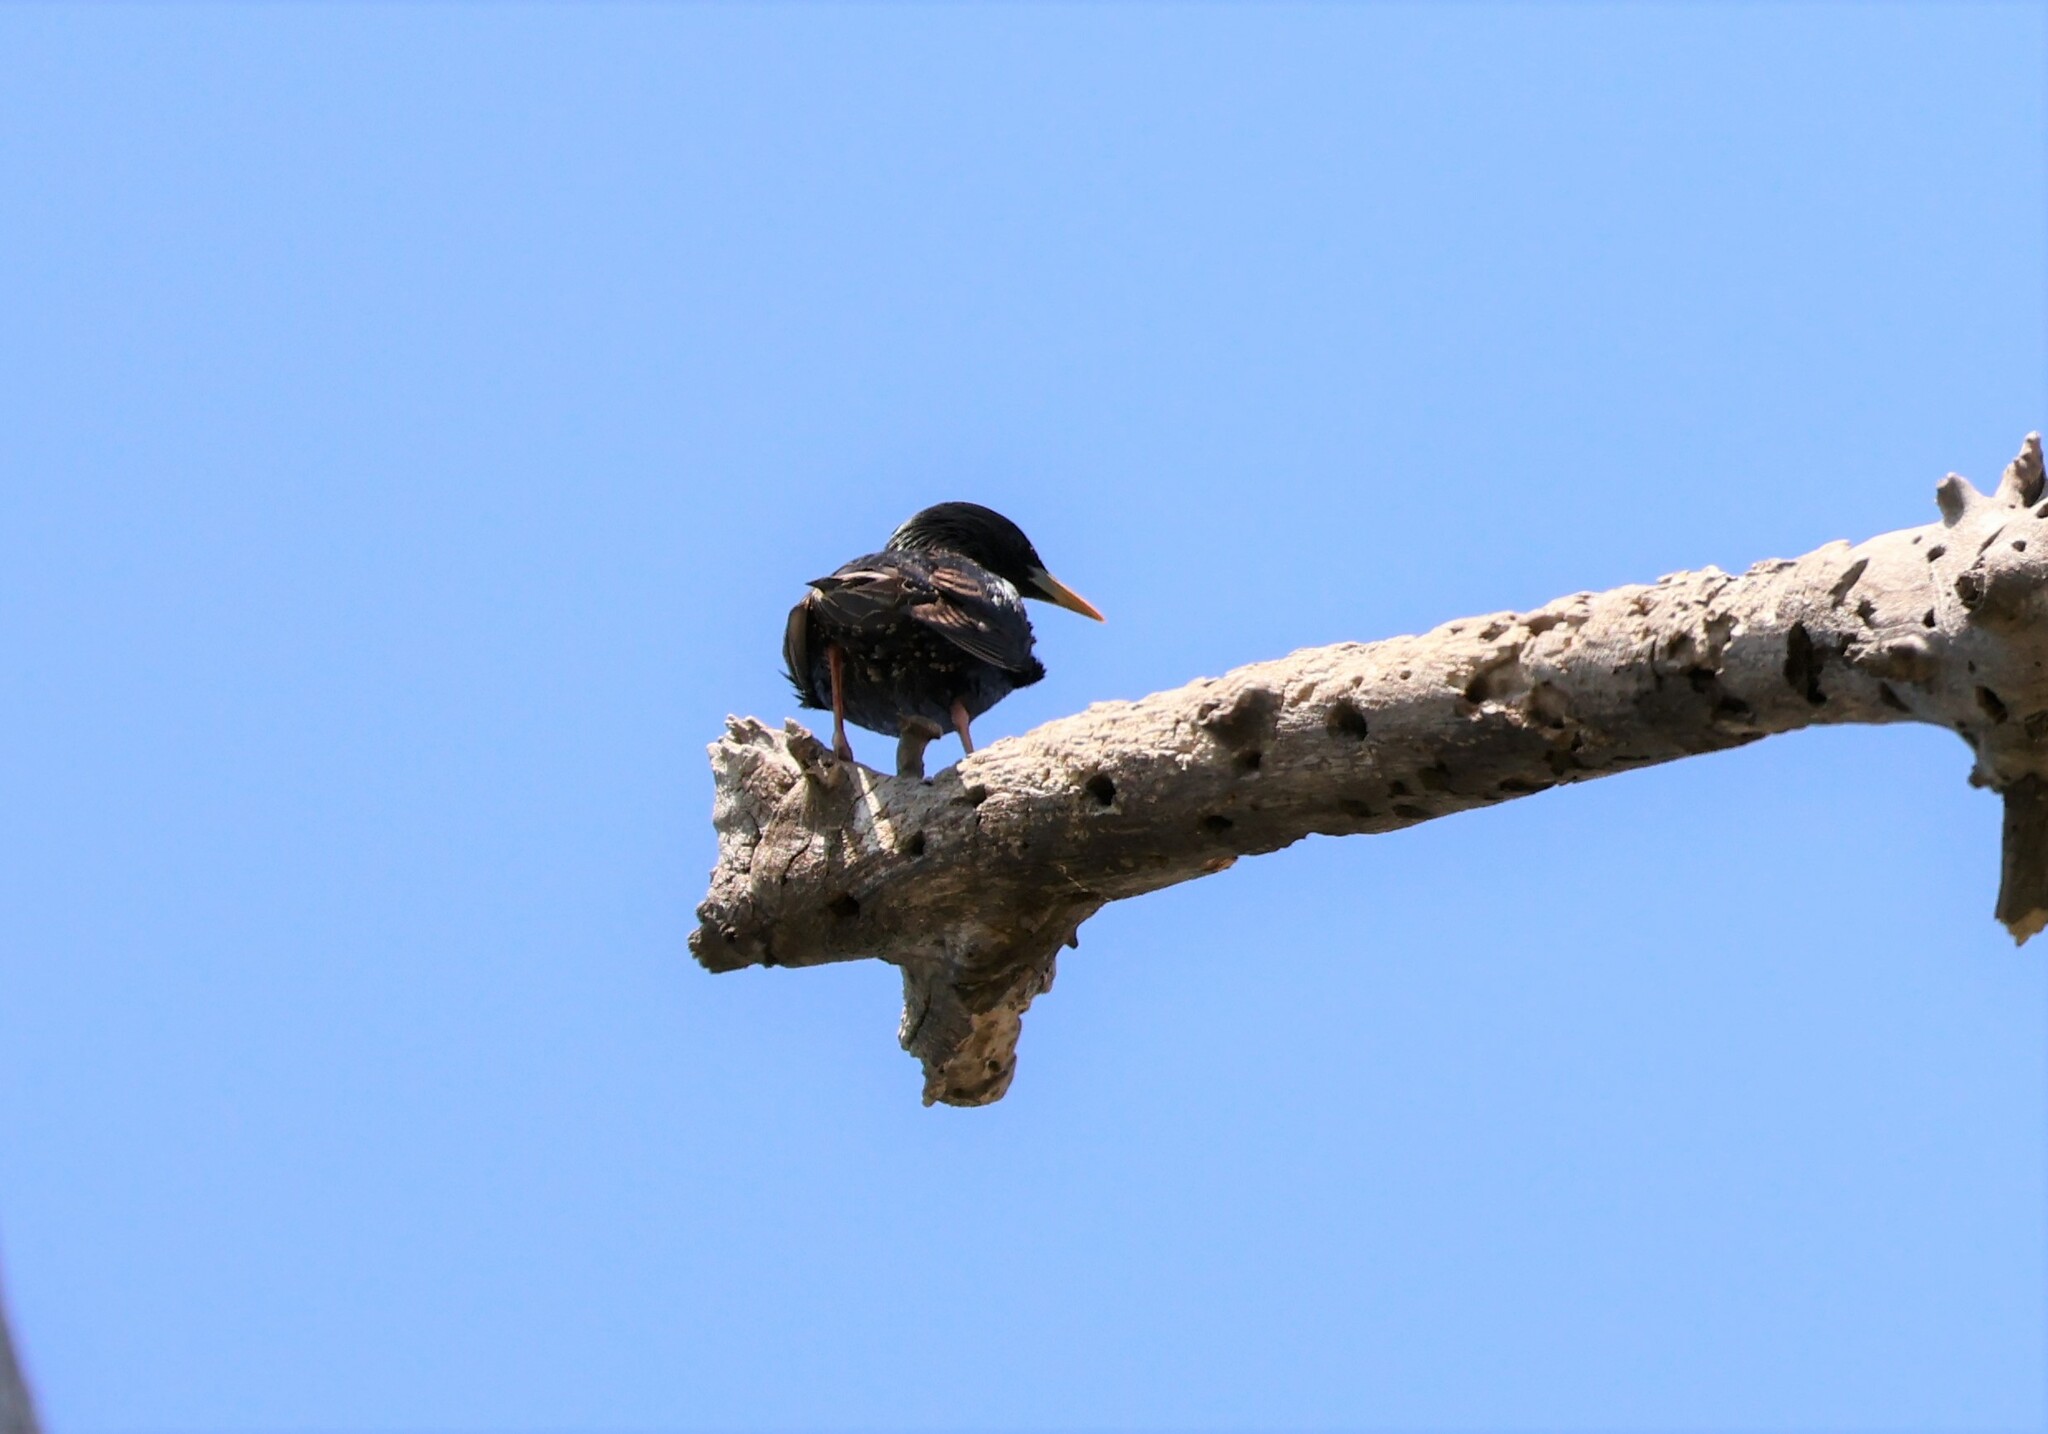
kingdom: Animalia
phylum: Chordata
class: Aves
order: Passeriformes
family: Sturnidae
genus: Sturnus
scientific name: Sturnus vulgaris
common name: Common starling
